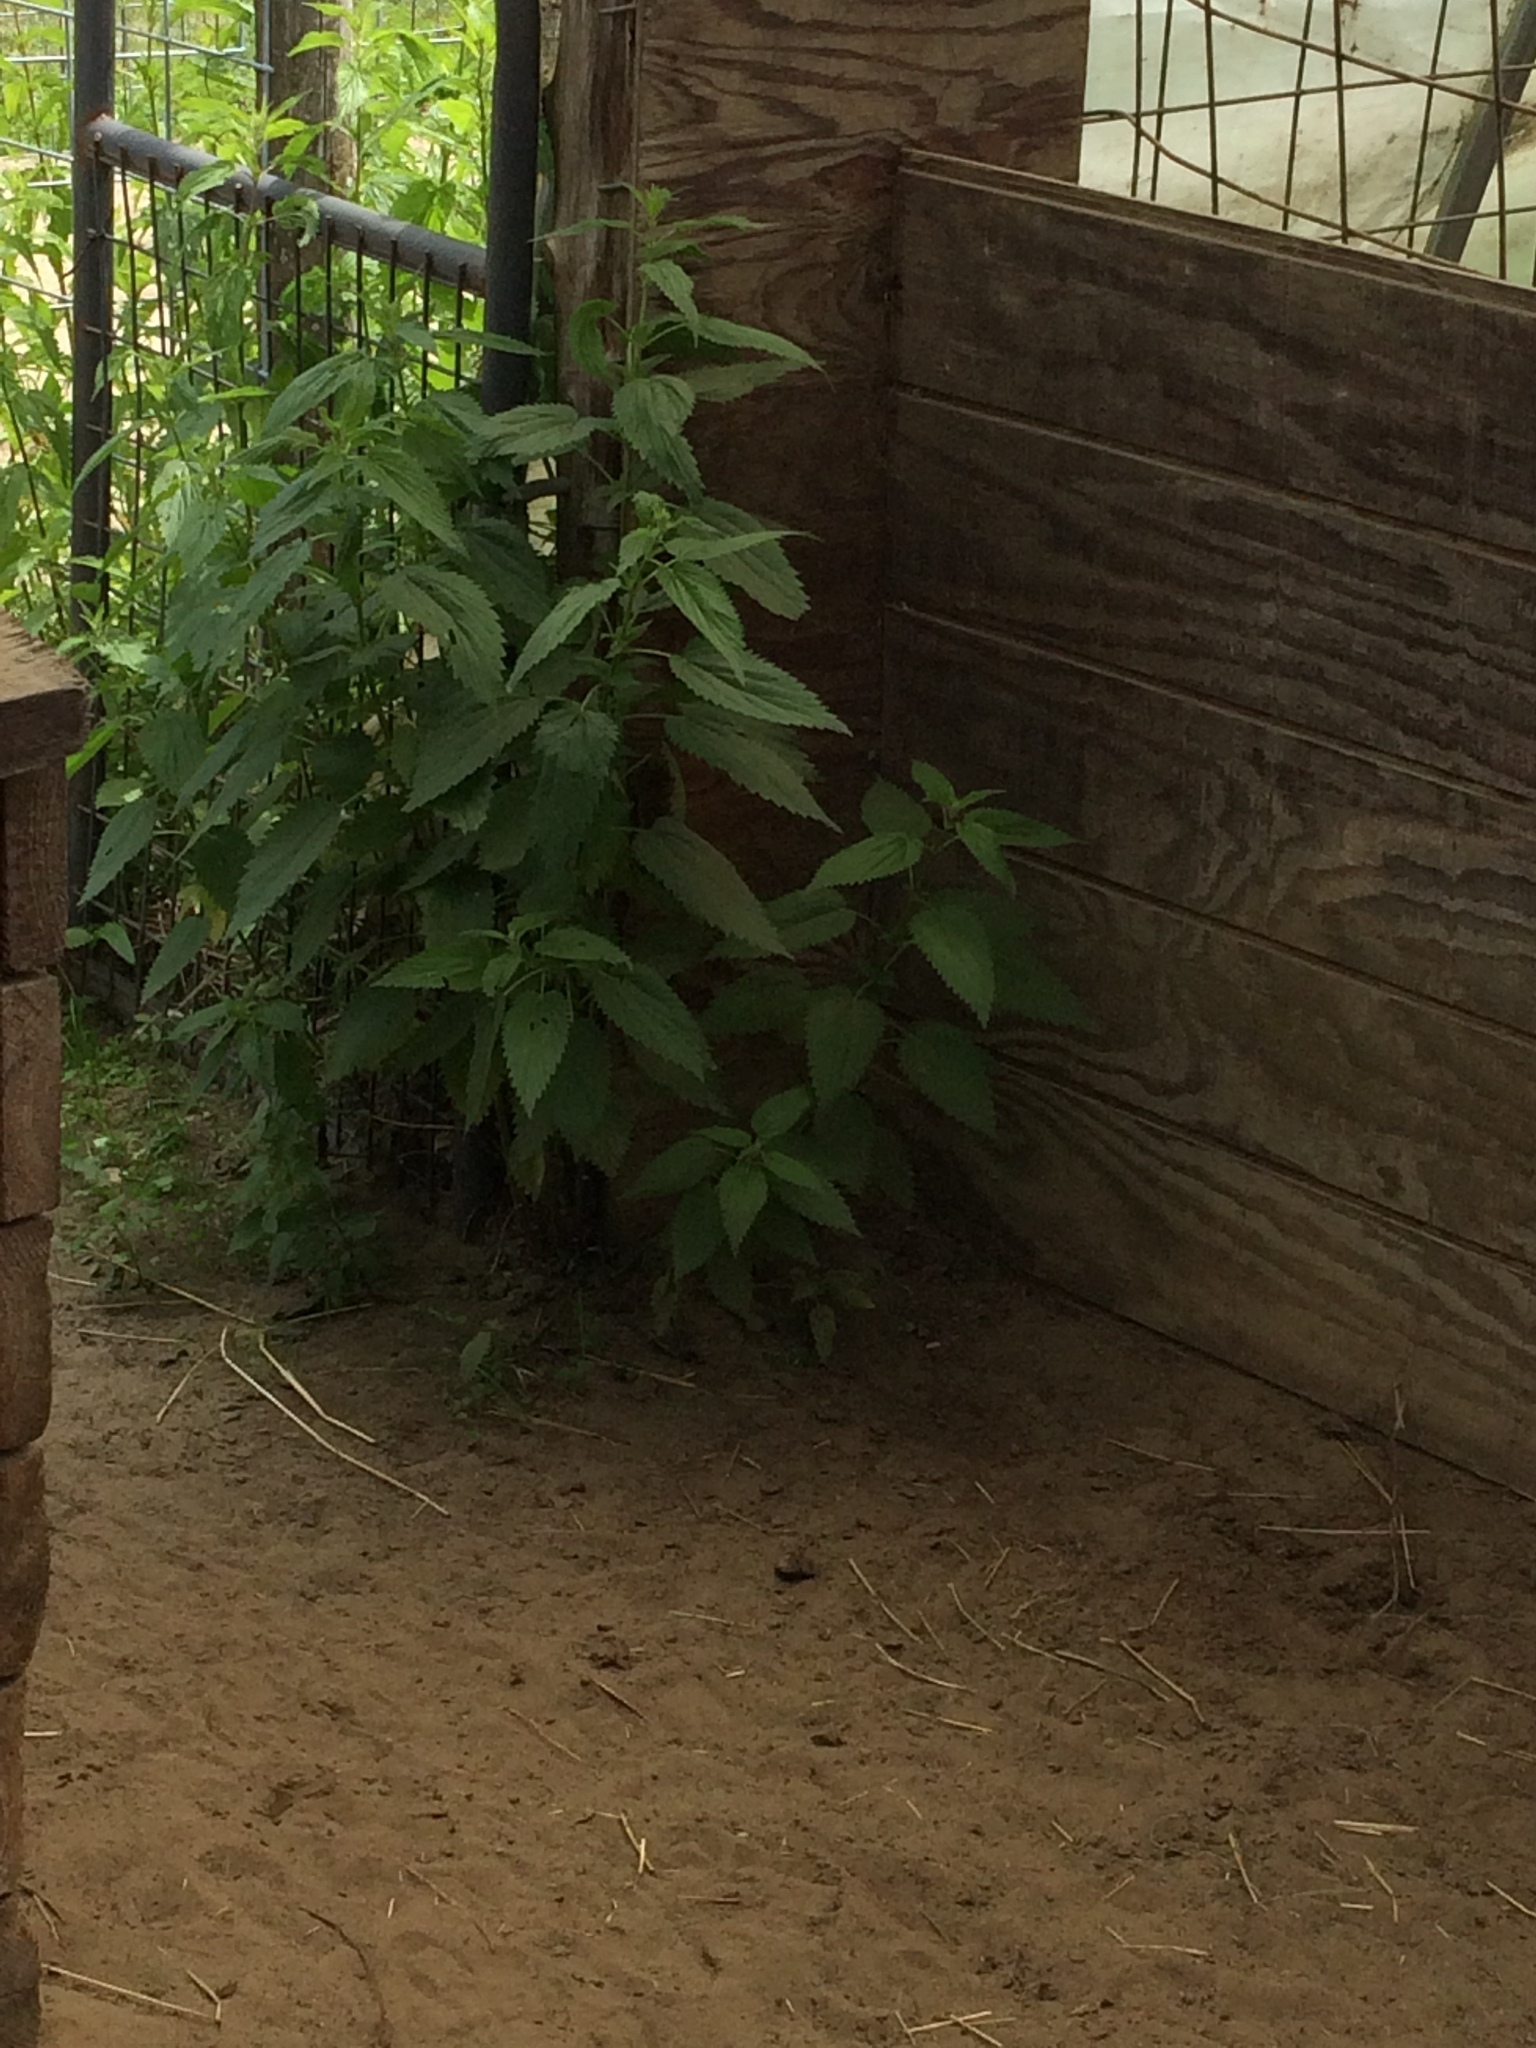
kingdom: Plantae
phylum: Tracheophyta
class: Magnoliopsida
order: Rosales
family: Urticaceae
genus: Urtica
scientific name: Urtica dioica
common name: Common nettle
